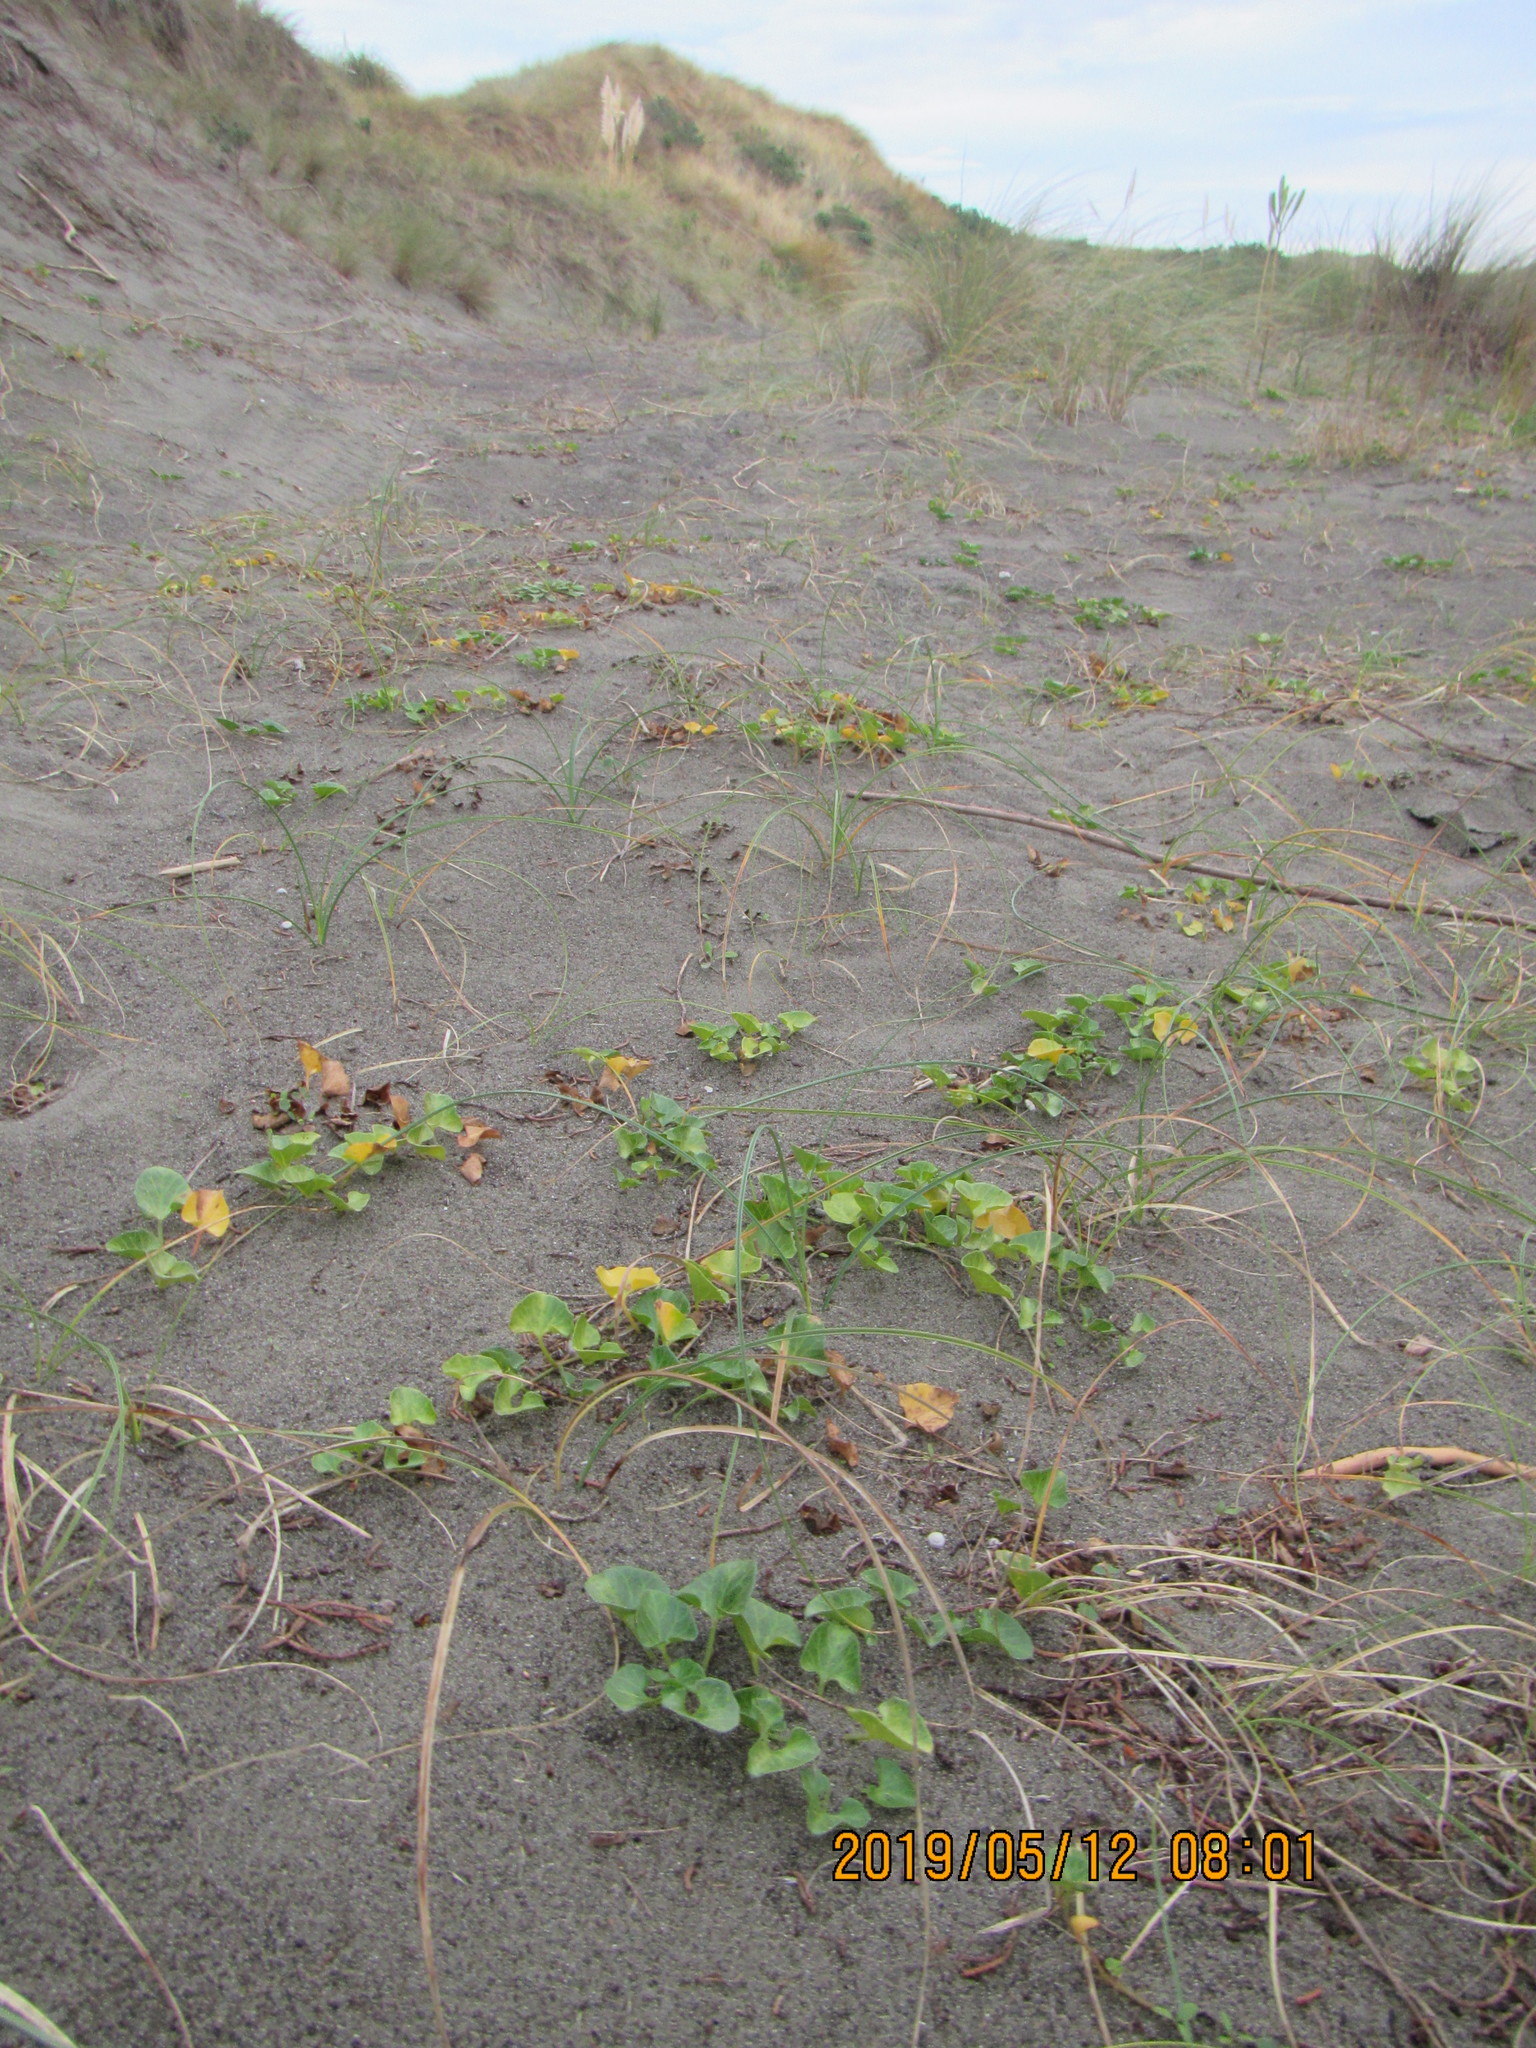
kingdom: Plantae
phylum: Tracheophyta
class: Magnoliopsida
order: Solanales
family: Convolvulaceae
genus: Calystegia
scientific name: Calystegia soldanella
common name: Sea bindweed
